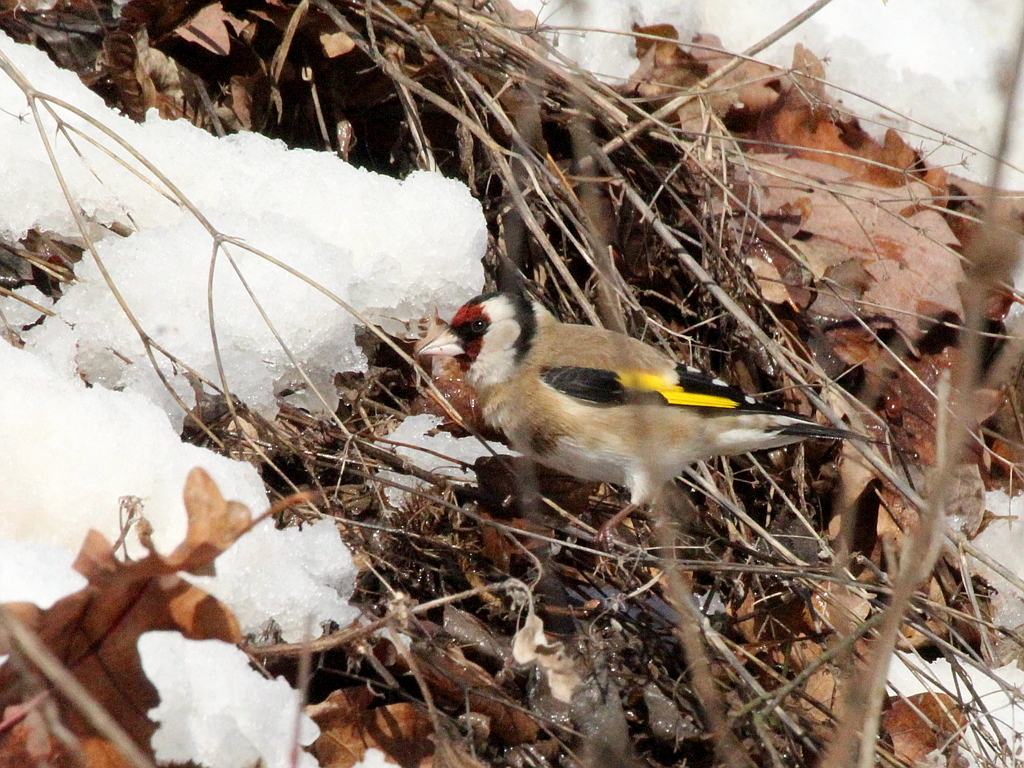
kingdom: Animalia
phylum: Chordata
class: Aves
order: Passeriformes
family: Fringillidae
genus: Carduelis
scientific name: Carduelis carduelis
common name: European goldfinch
